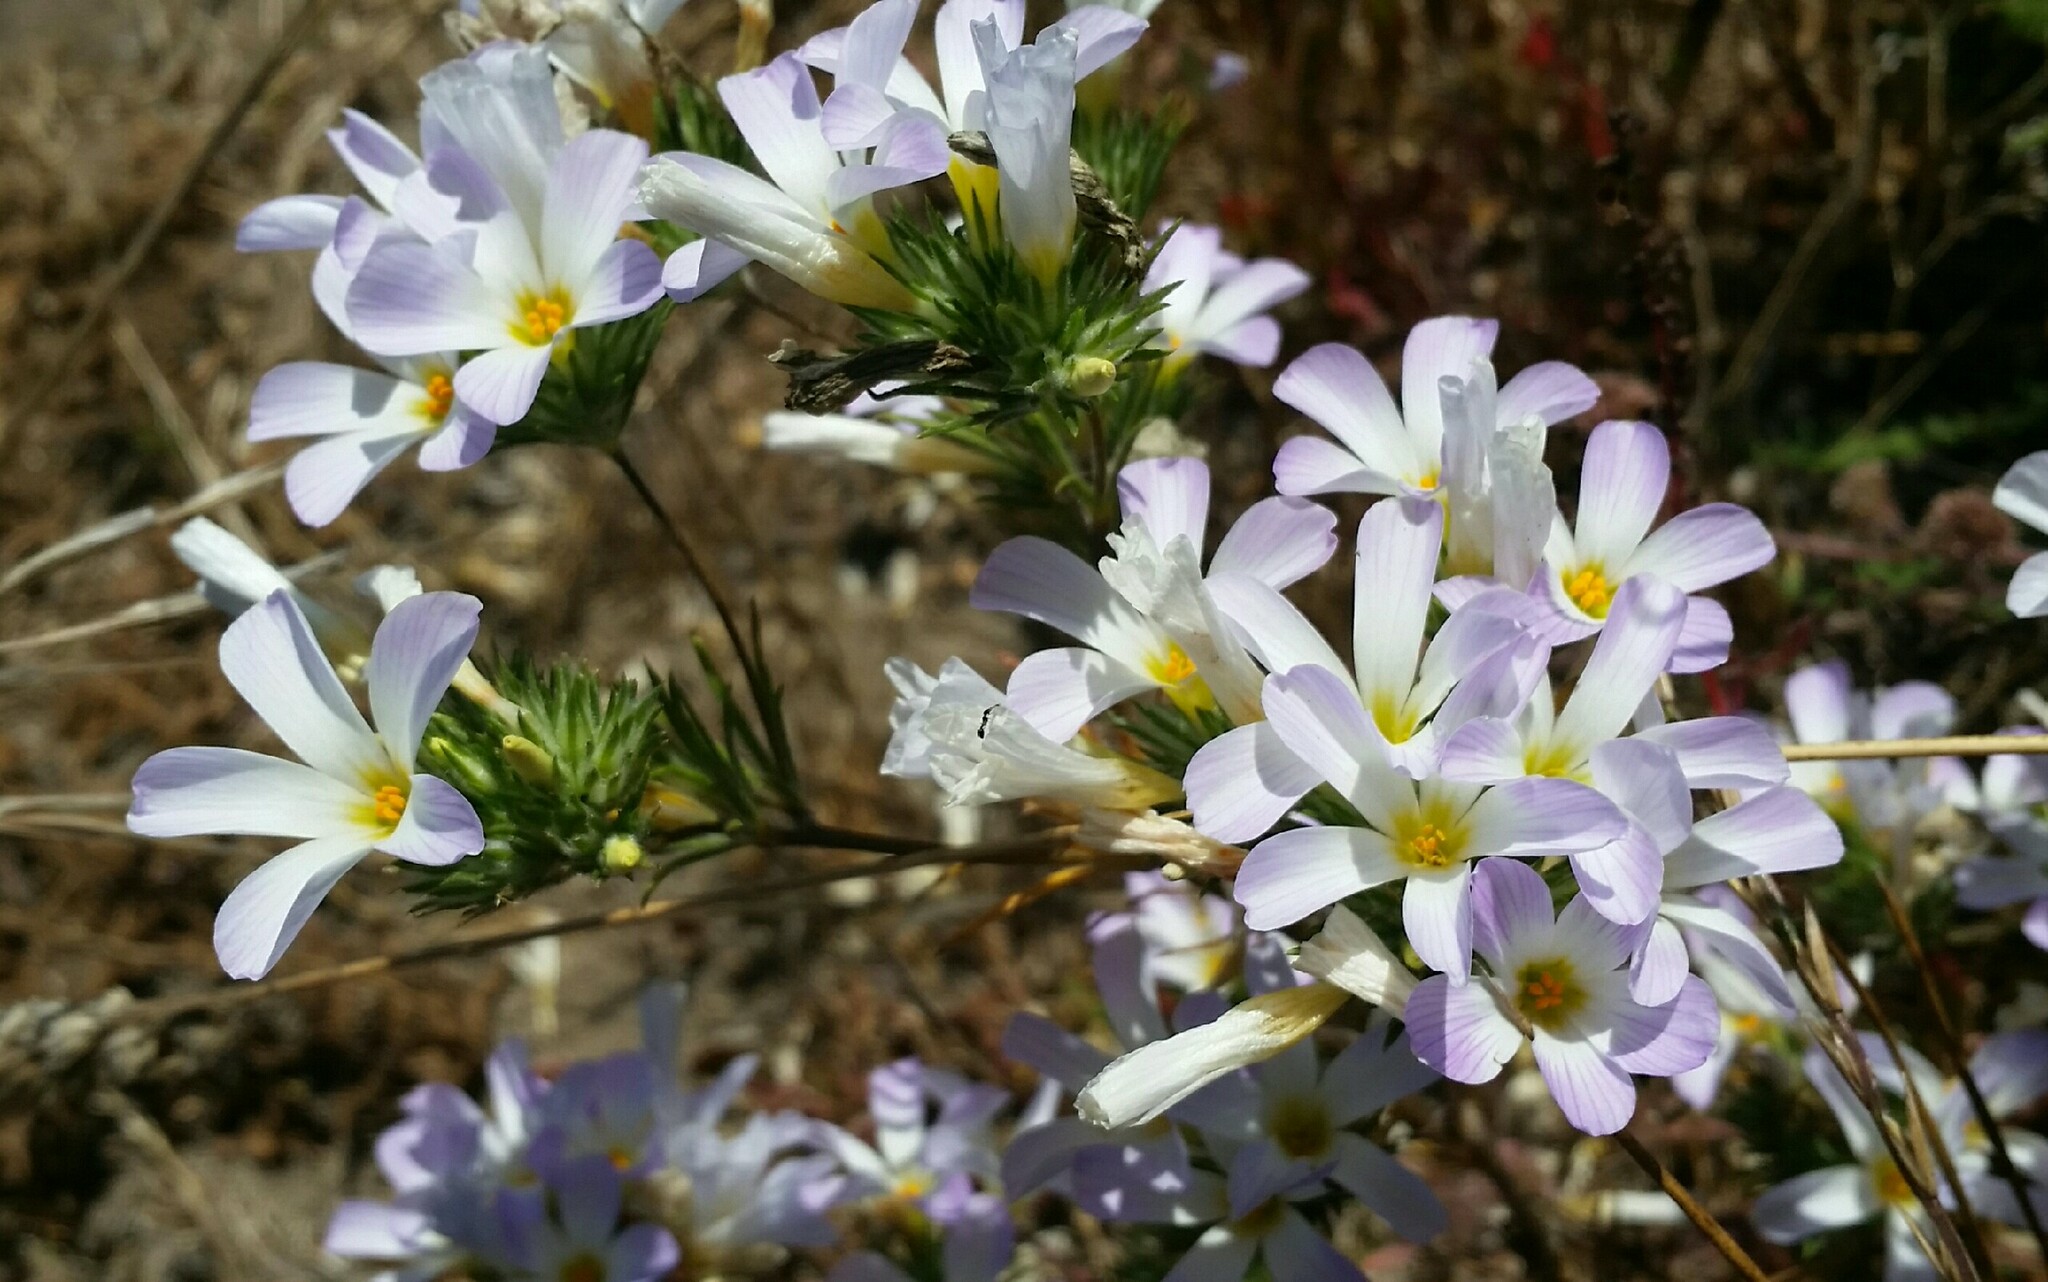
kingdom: Plantae
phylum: Tracheophyta
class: Magnoliopsida
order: Ericales
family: Polemoniaceae
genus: Leptosiphon
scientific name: Leptosiphon grandiflorus
